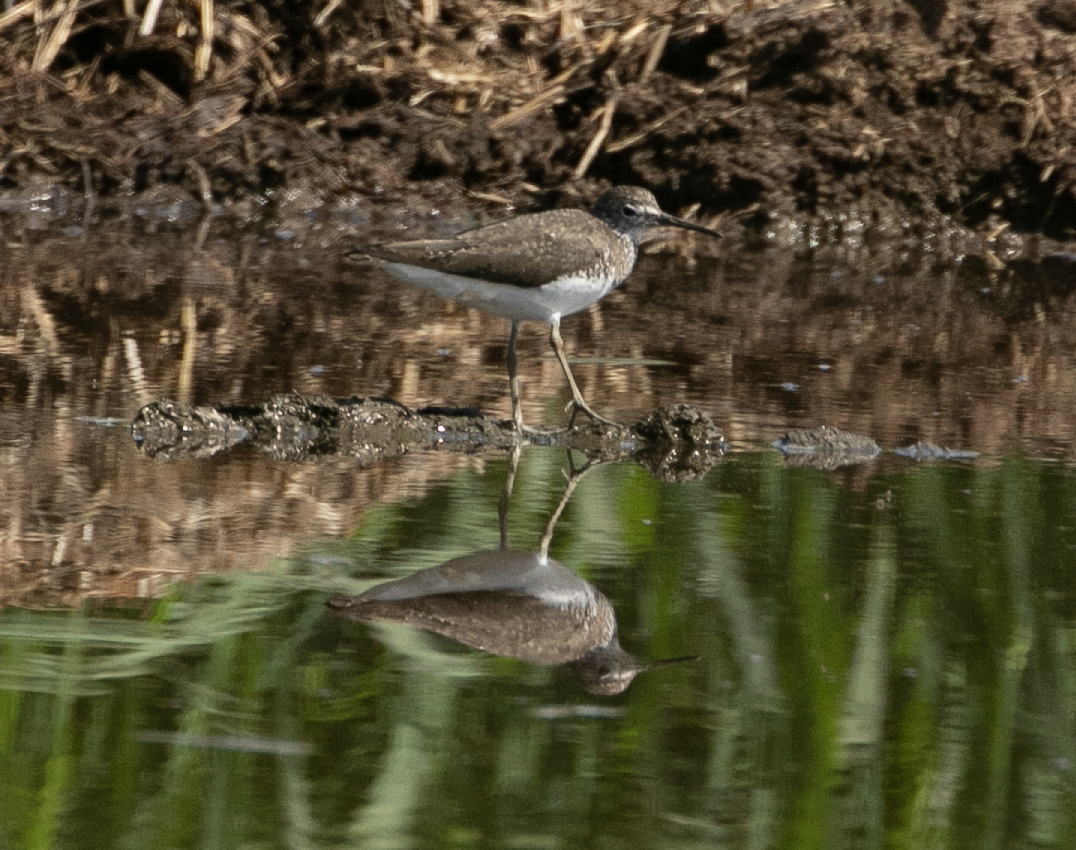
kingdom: Animalia
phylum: Chordata
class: Aves
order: Charadriiformes
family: Scolopacidae
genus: Tringa
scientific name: Tringa ochropus
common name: Green sandpiper
